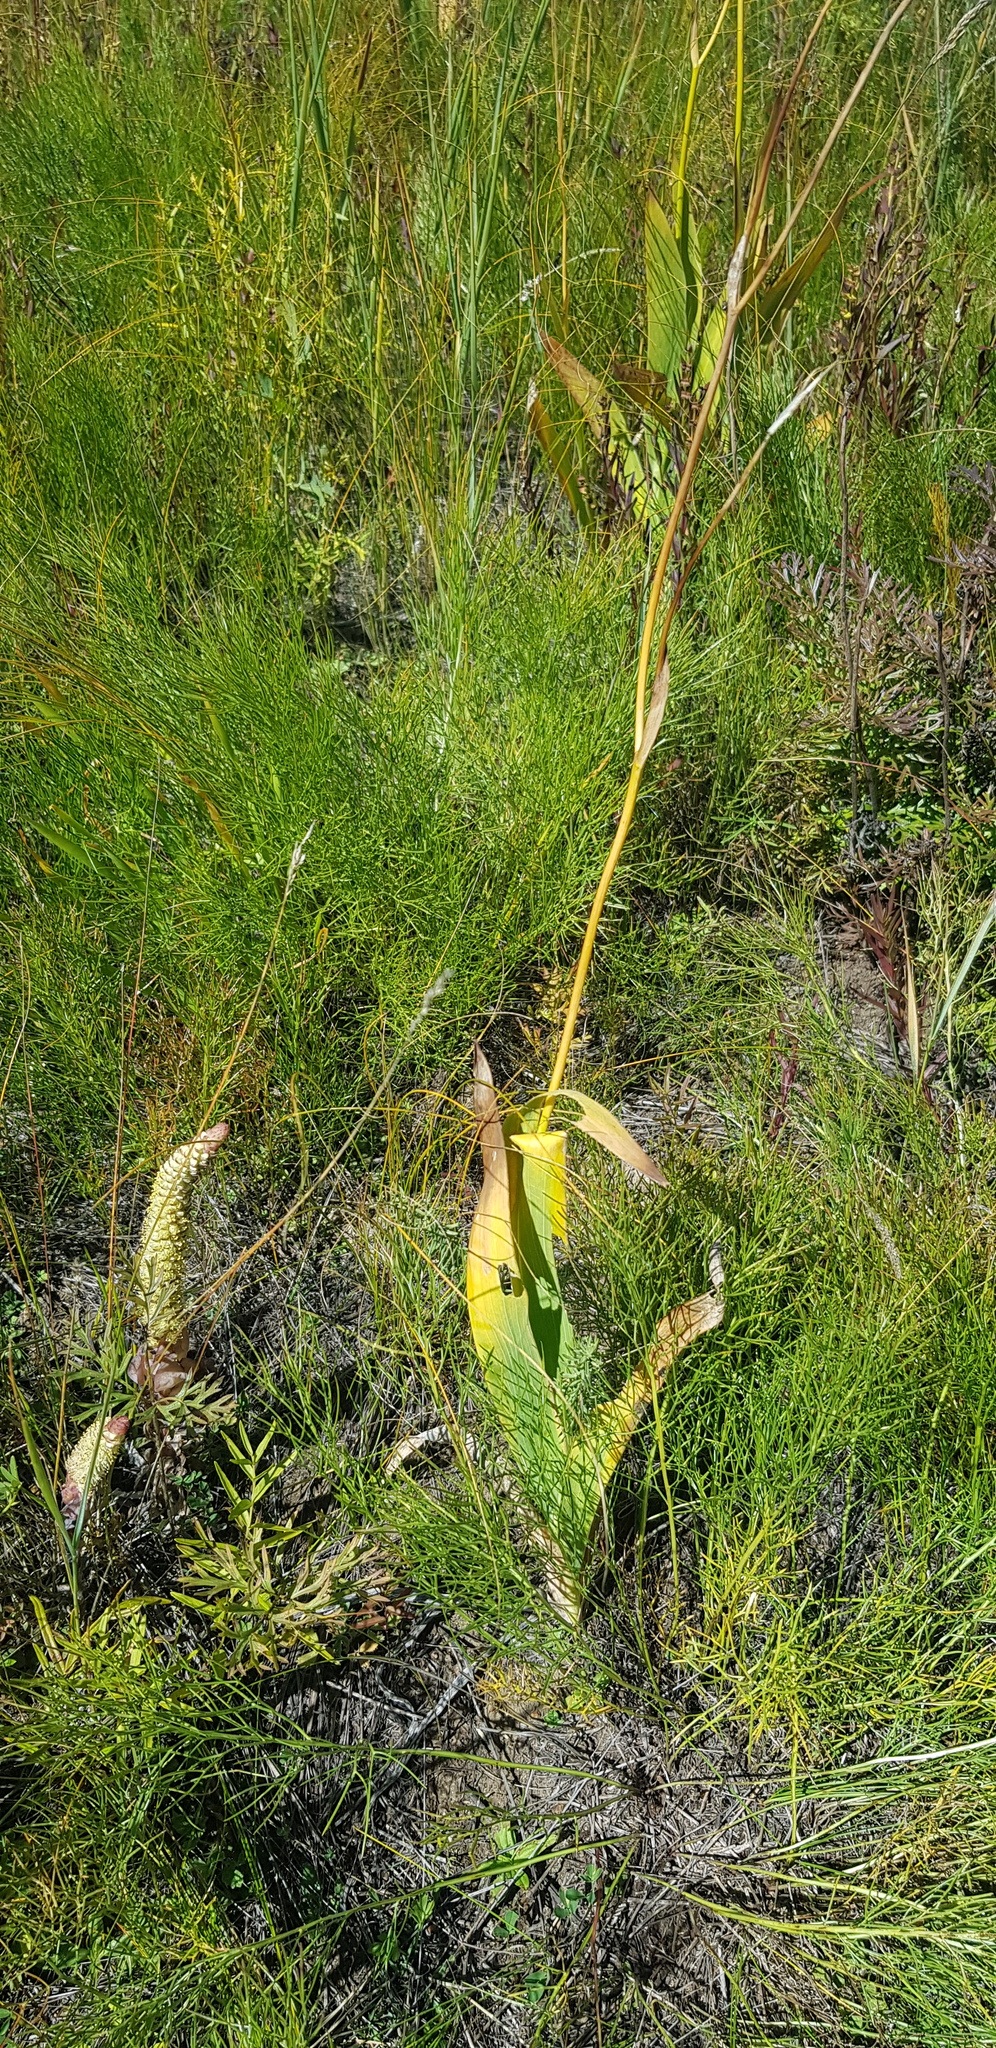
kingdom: Plantae
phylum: Tracheophyta
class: Liliopsida
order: Asparagales
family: Iridaceae
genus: Iris
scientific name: Iris dichotoma
